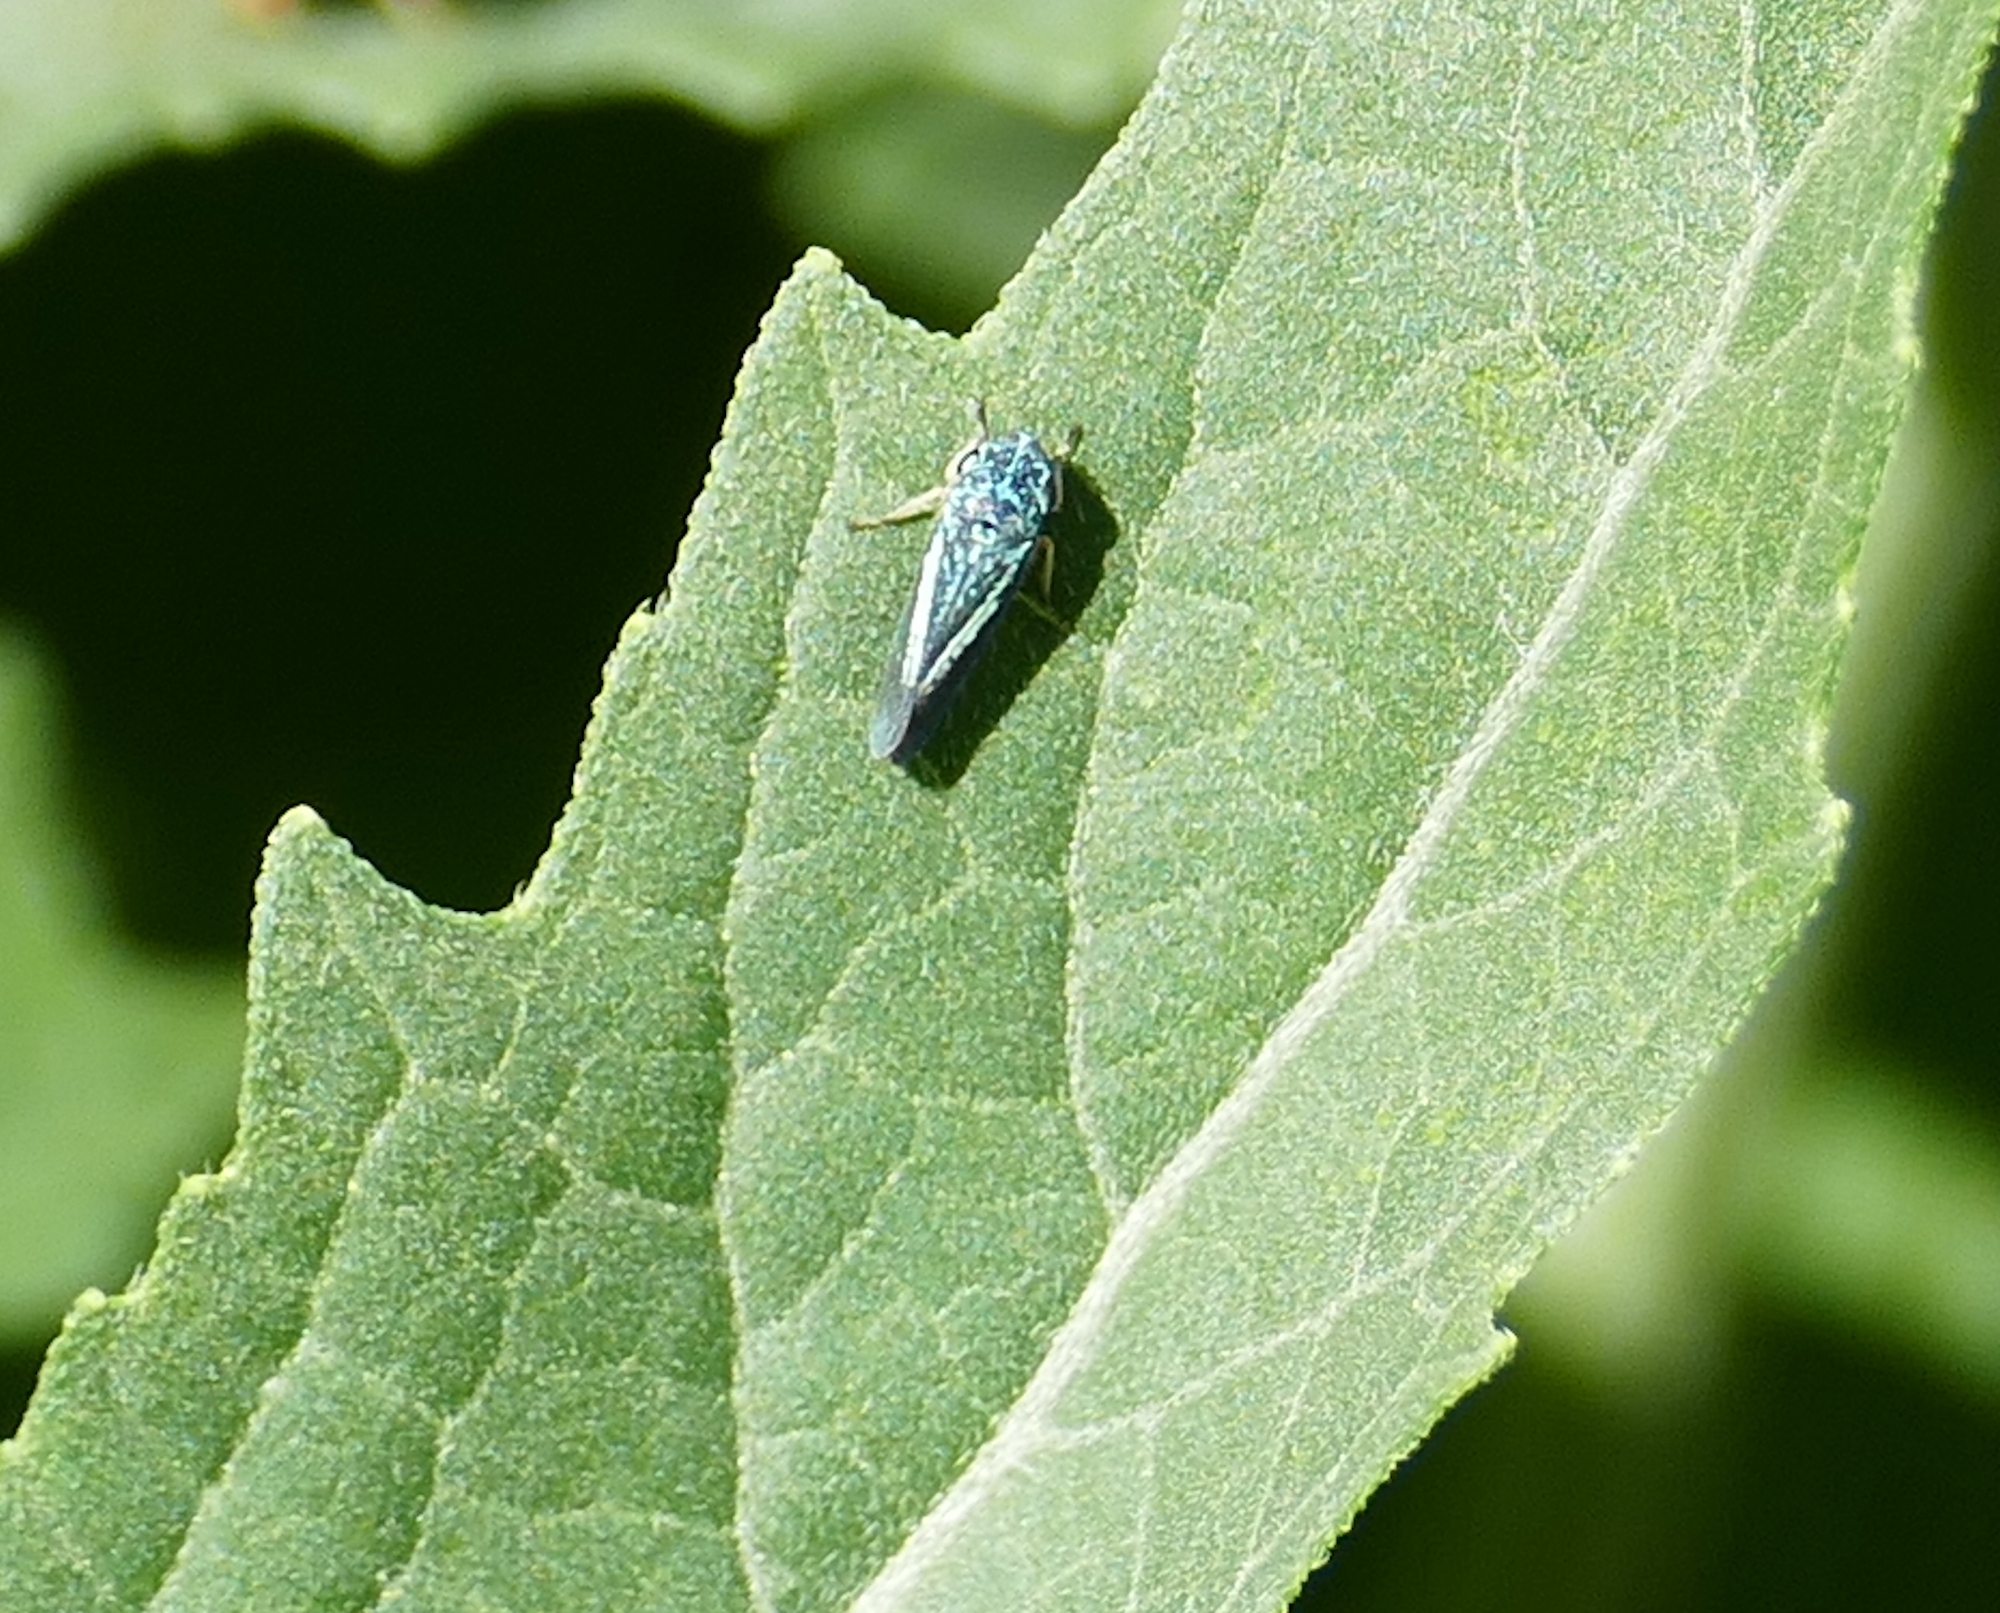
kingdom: Animalia
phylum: Arthropoda
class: Insecta
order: Hemiptera
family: Cicadellidae
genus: Graphocephala
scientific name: Graphocephala lugubris
